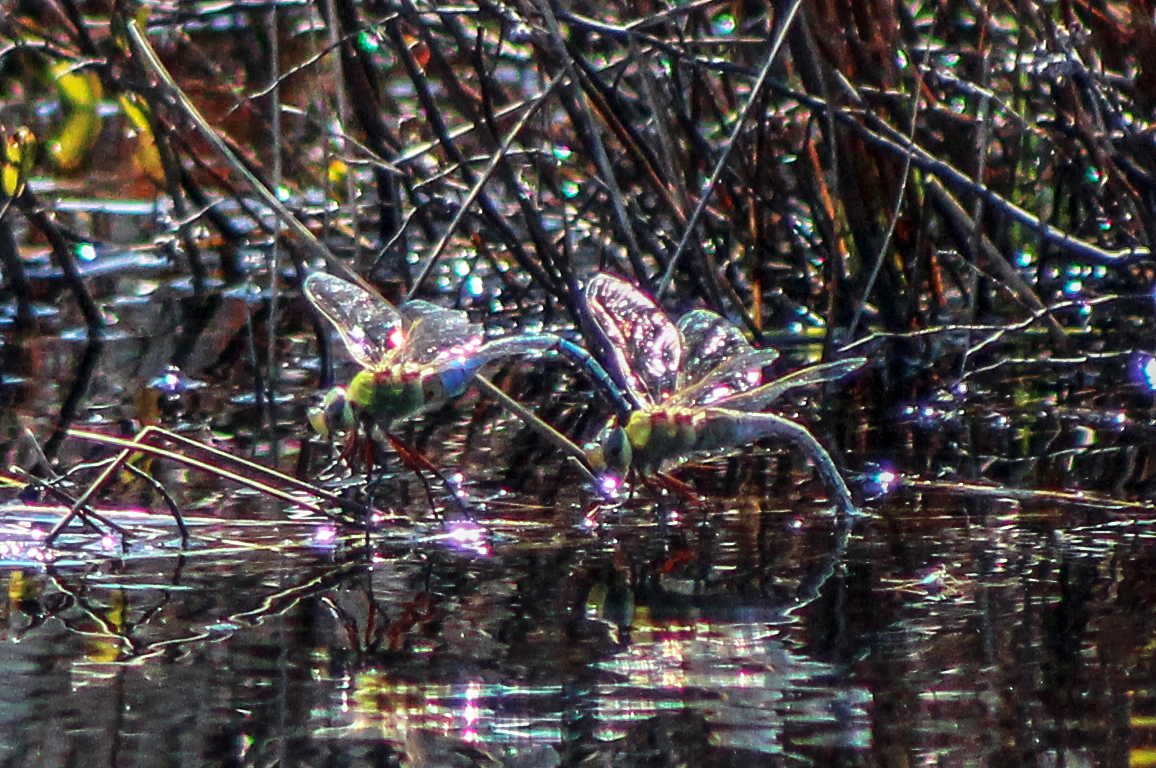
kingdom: Animalia
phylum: Arthropoda
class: Insecta
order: Odonata
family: Aeshnidae
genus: Anax
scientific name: Anax junius
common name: Common green darner
